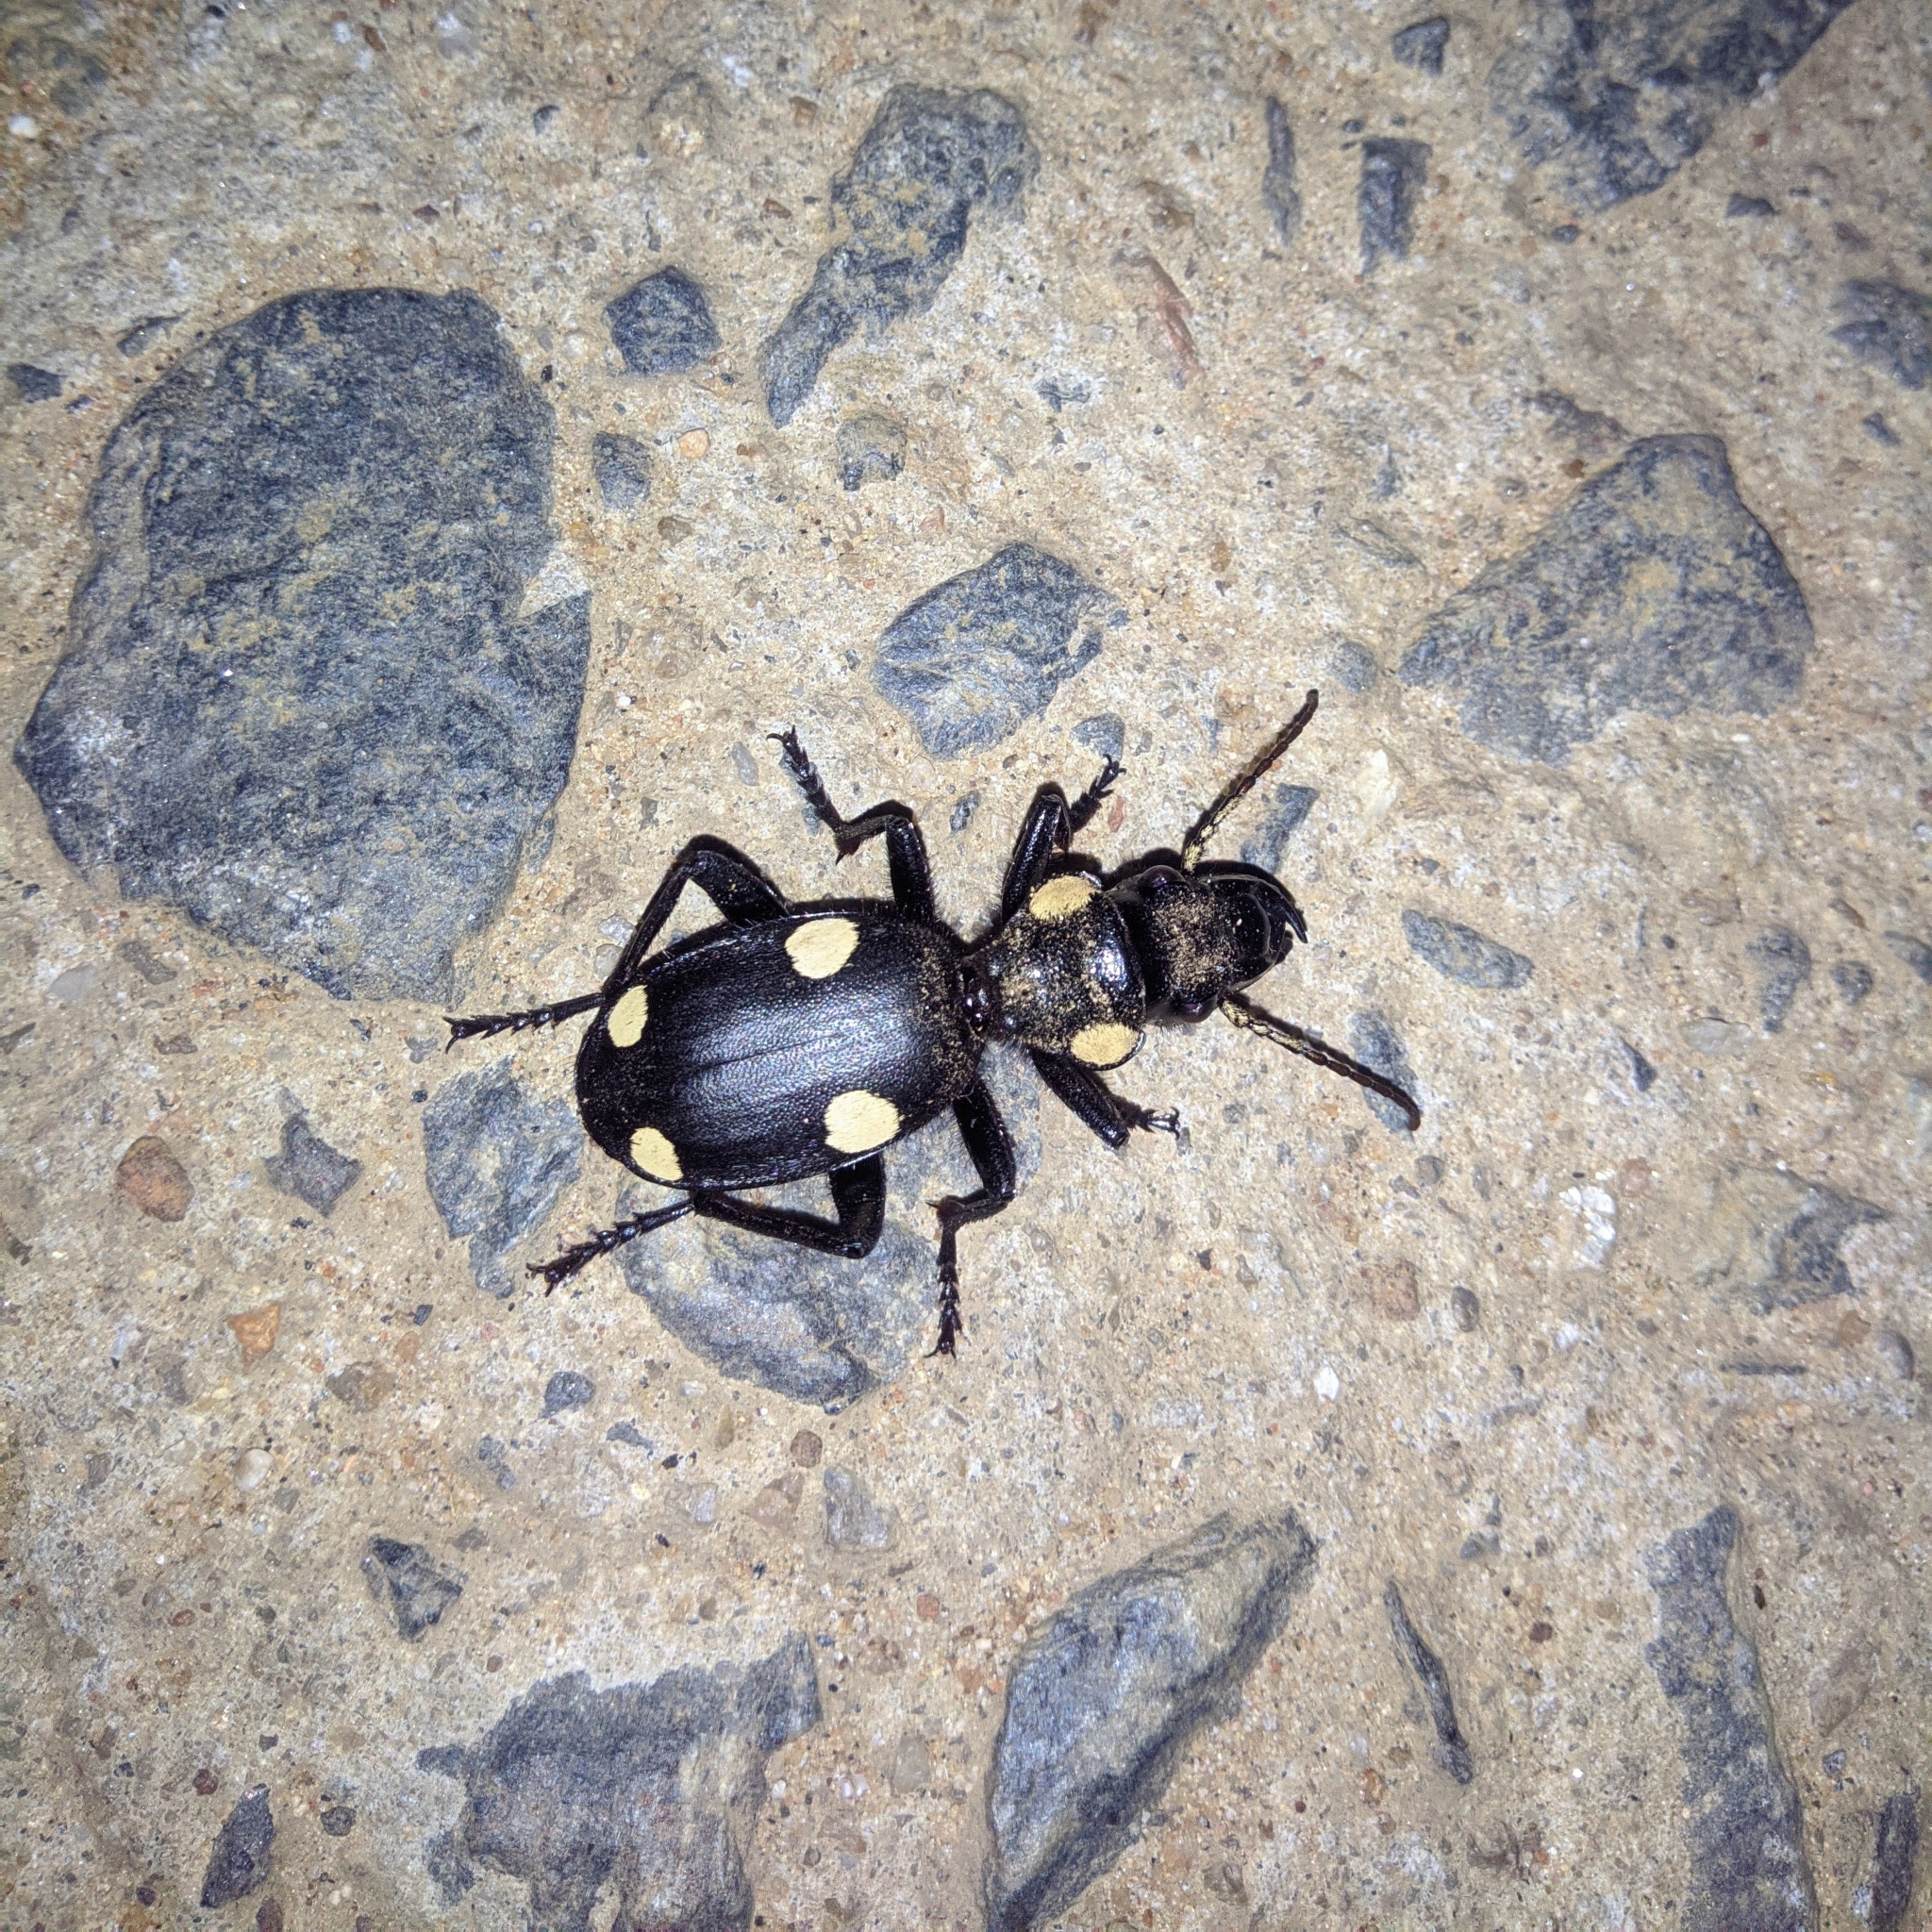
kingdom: Animalia
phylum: Arthropoda
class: Insecta
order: Coleoptera
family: Carabidae
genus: Anthia
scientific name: Anthia sexguttata
